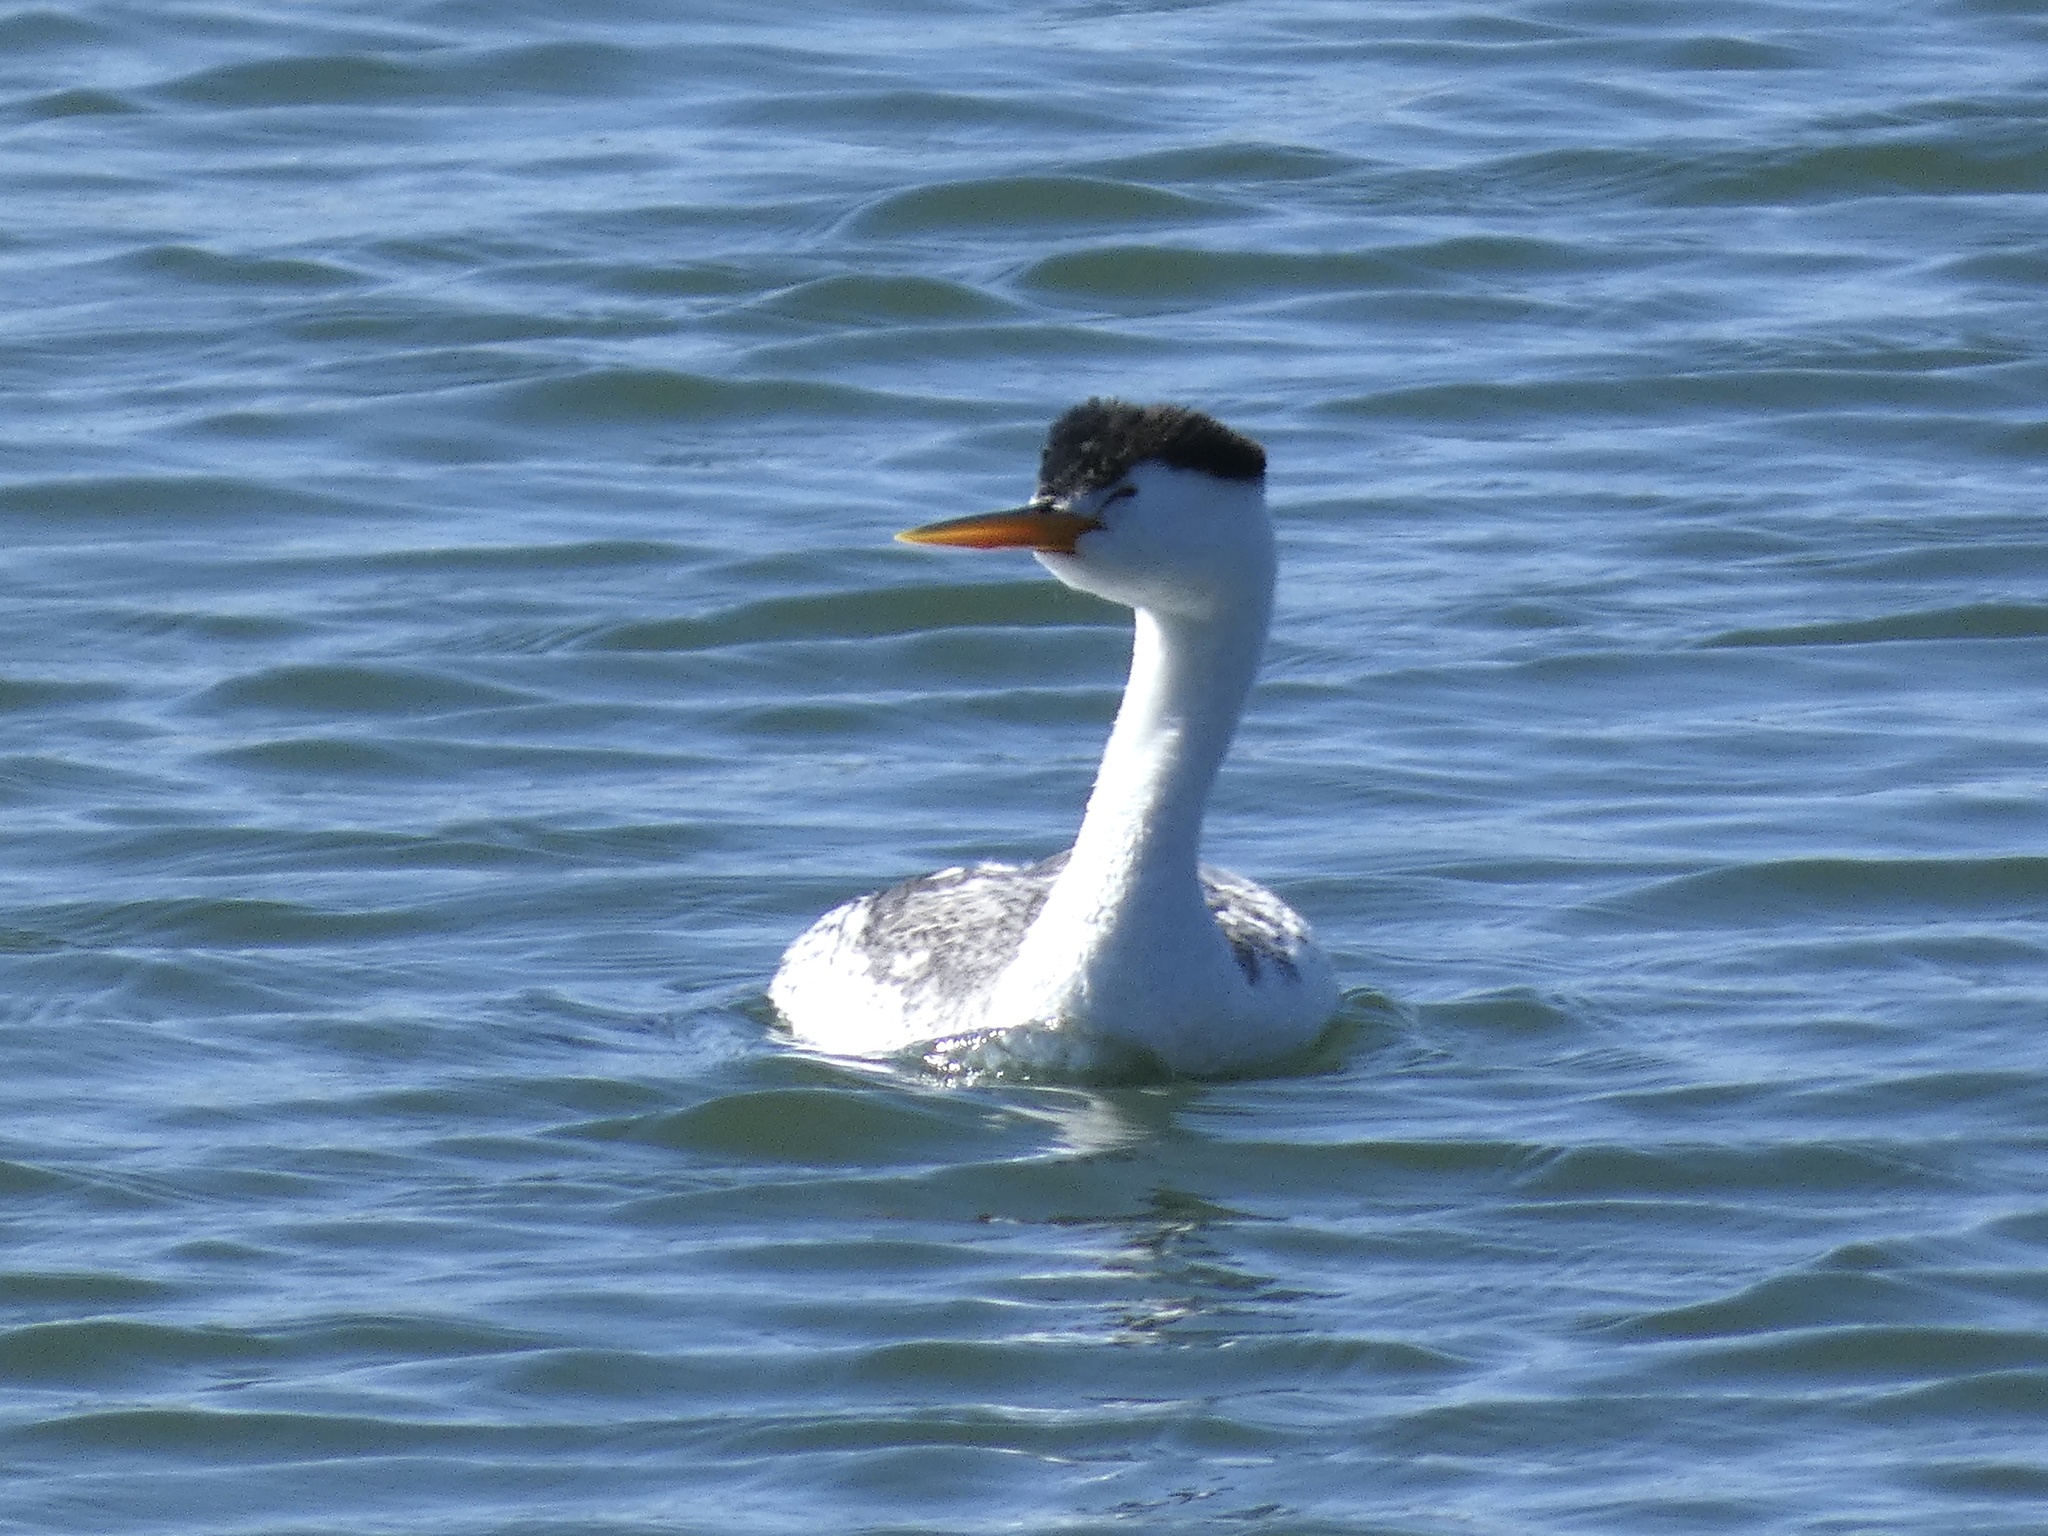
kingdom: Animalia
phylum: Chordata
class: Aves
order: Podicipediformes
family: Podicipedidae
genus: Aechmophorus
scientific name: Aechmophorus clarkii
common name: Clark's grebe
